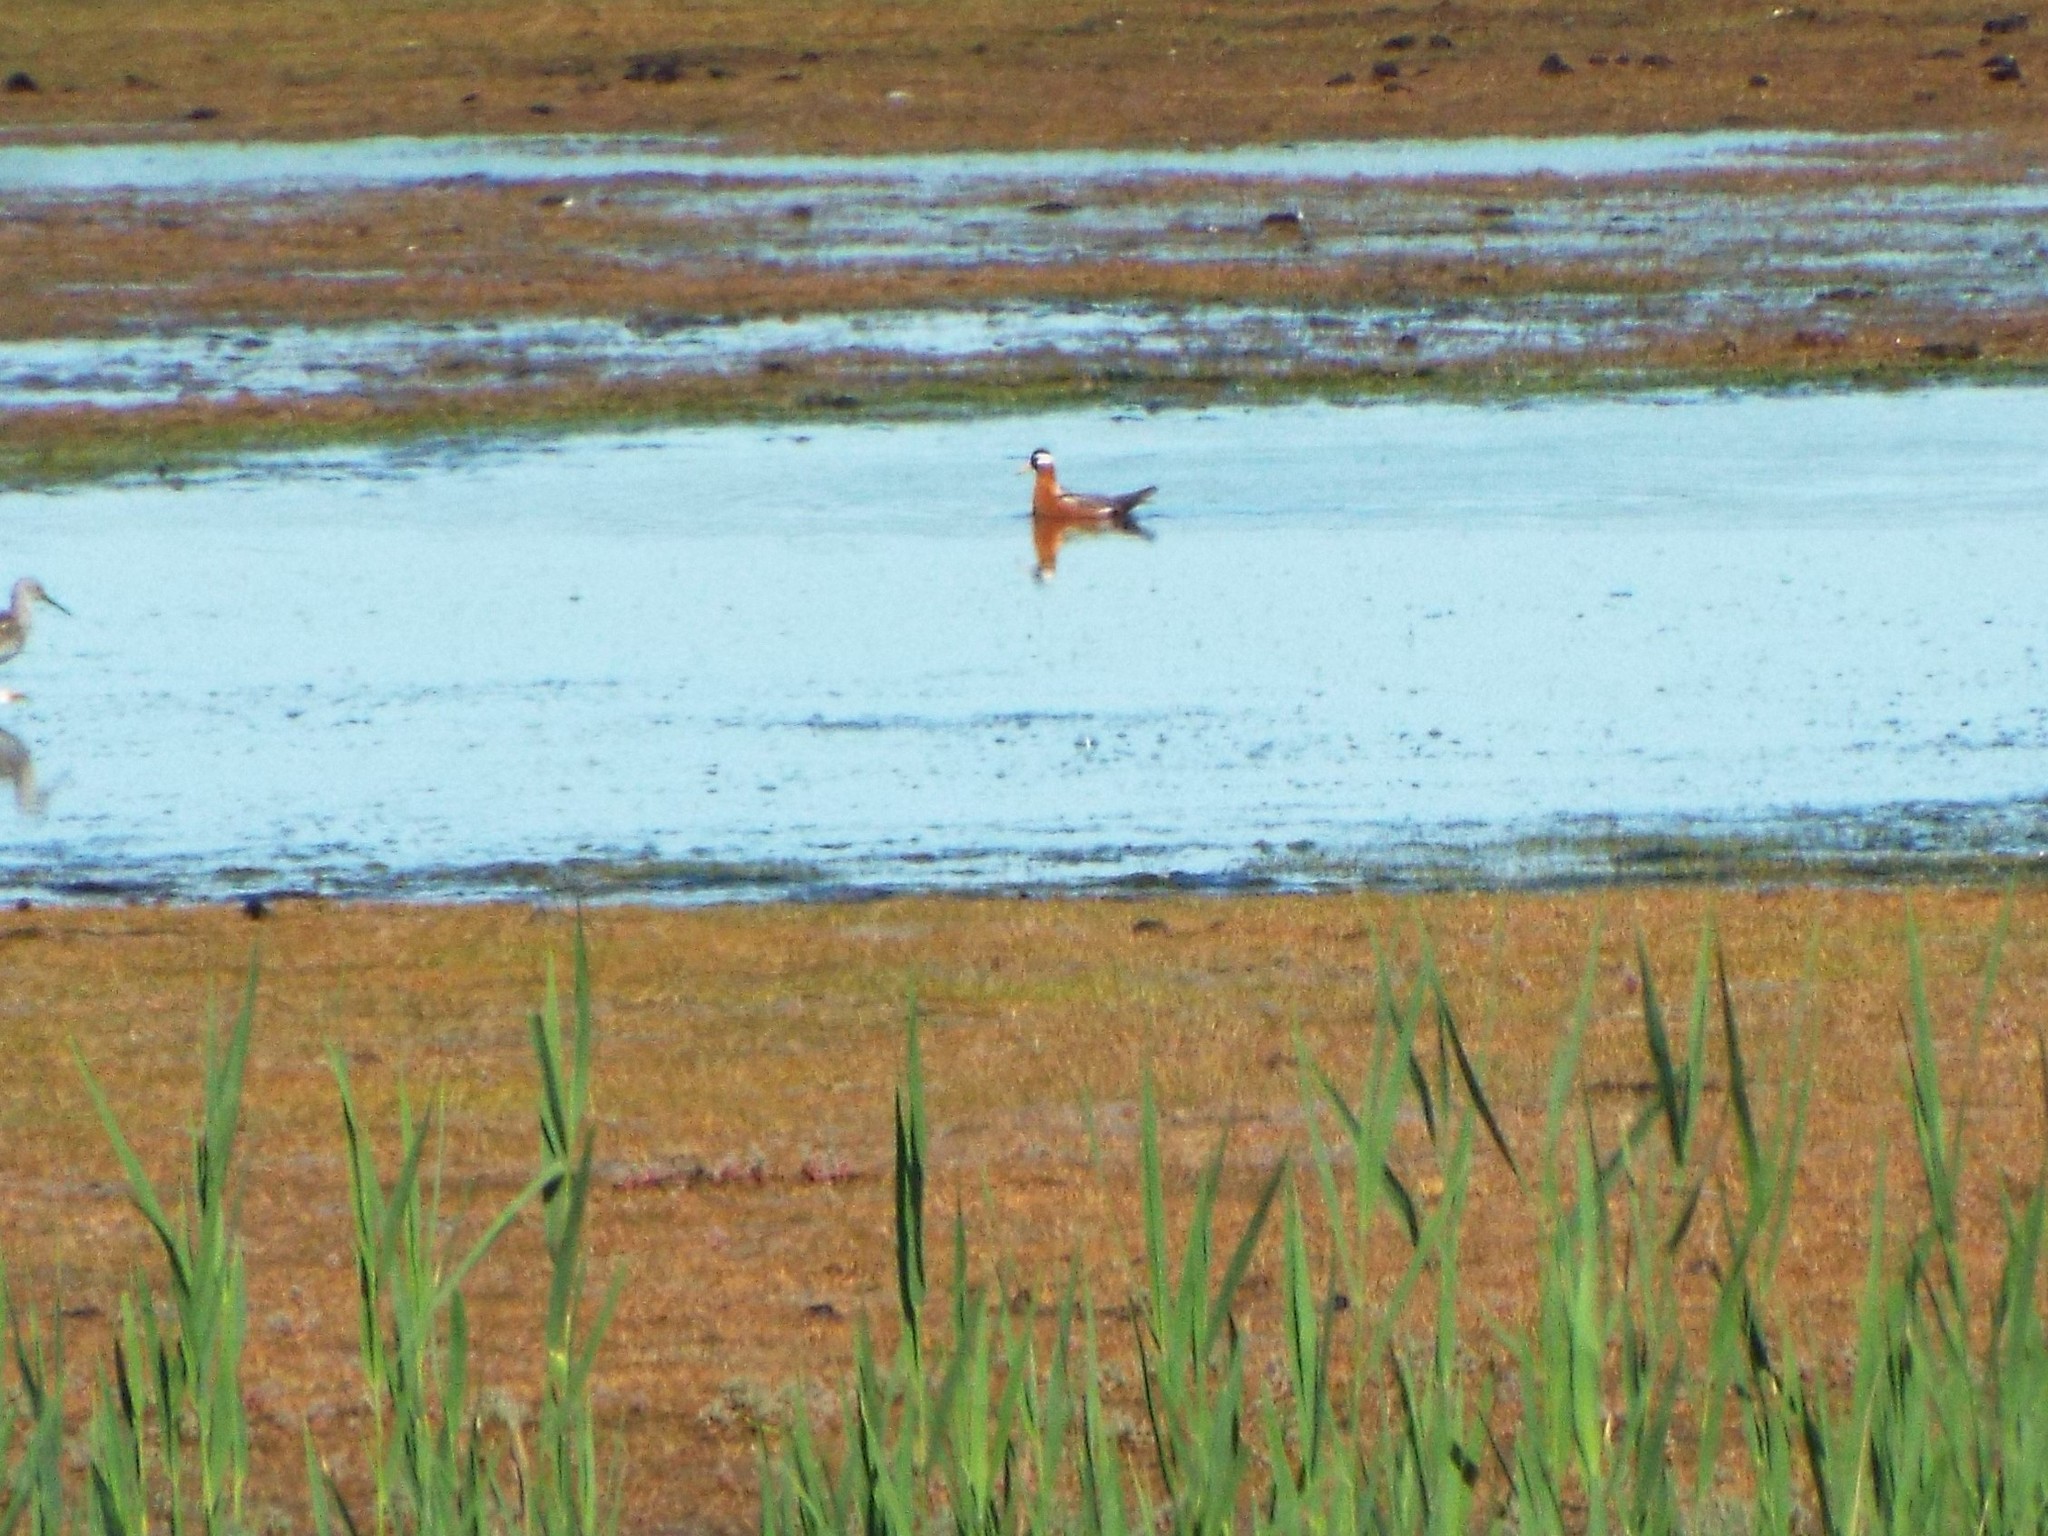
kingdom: Animalia
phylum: Chordata
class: Aves
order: Charadriiformes
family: Scolopacidae
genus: Phalaropus
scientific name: Phalaropus fulicarius
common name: Red phalarope
